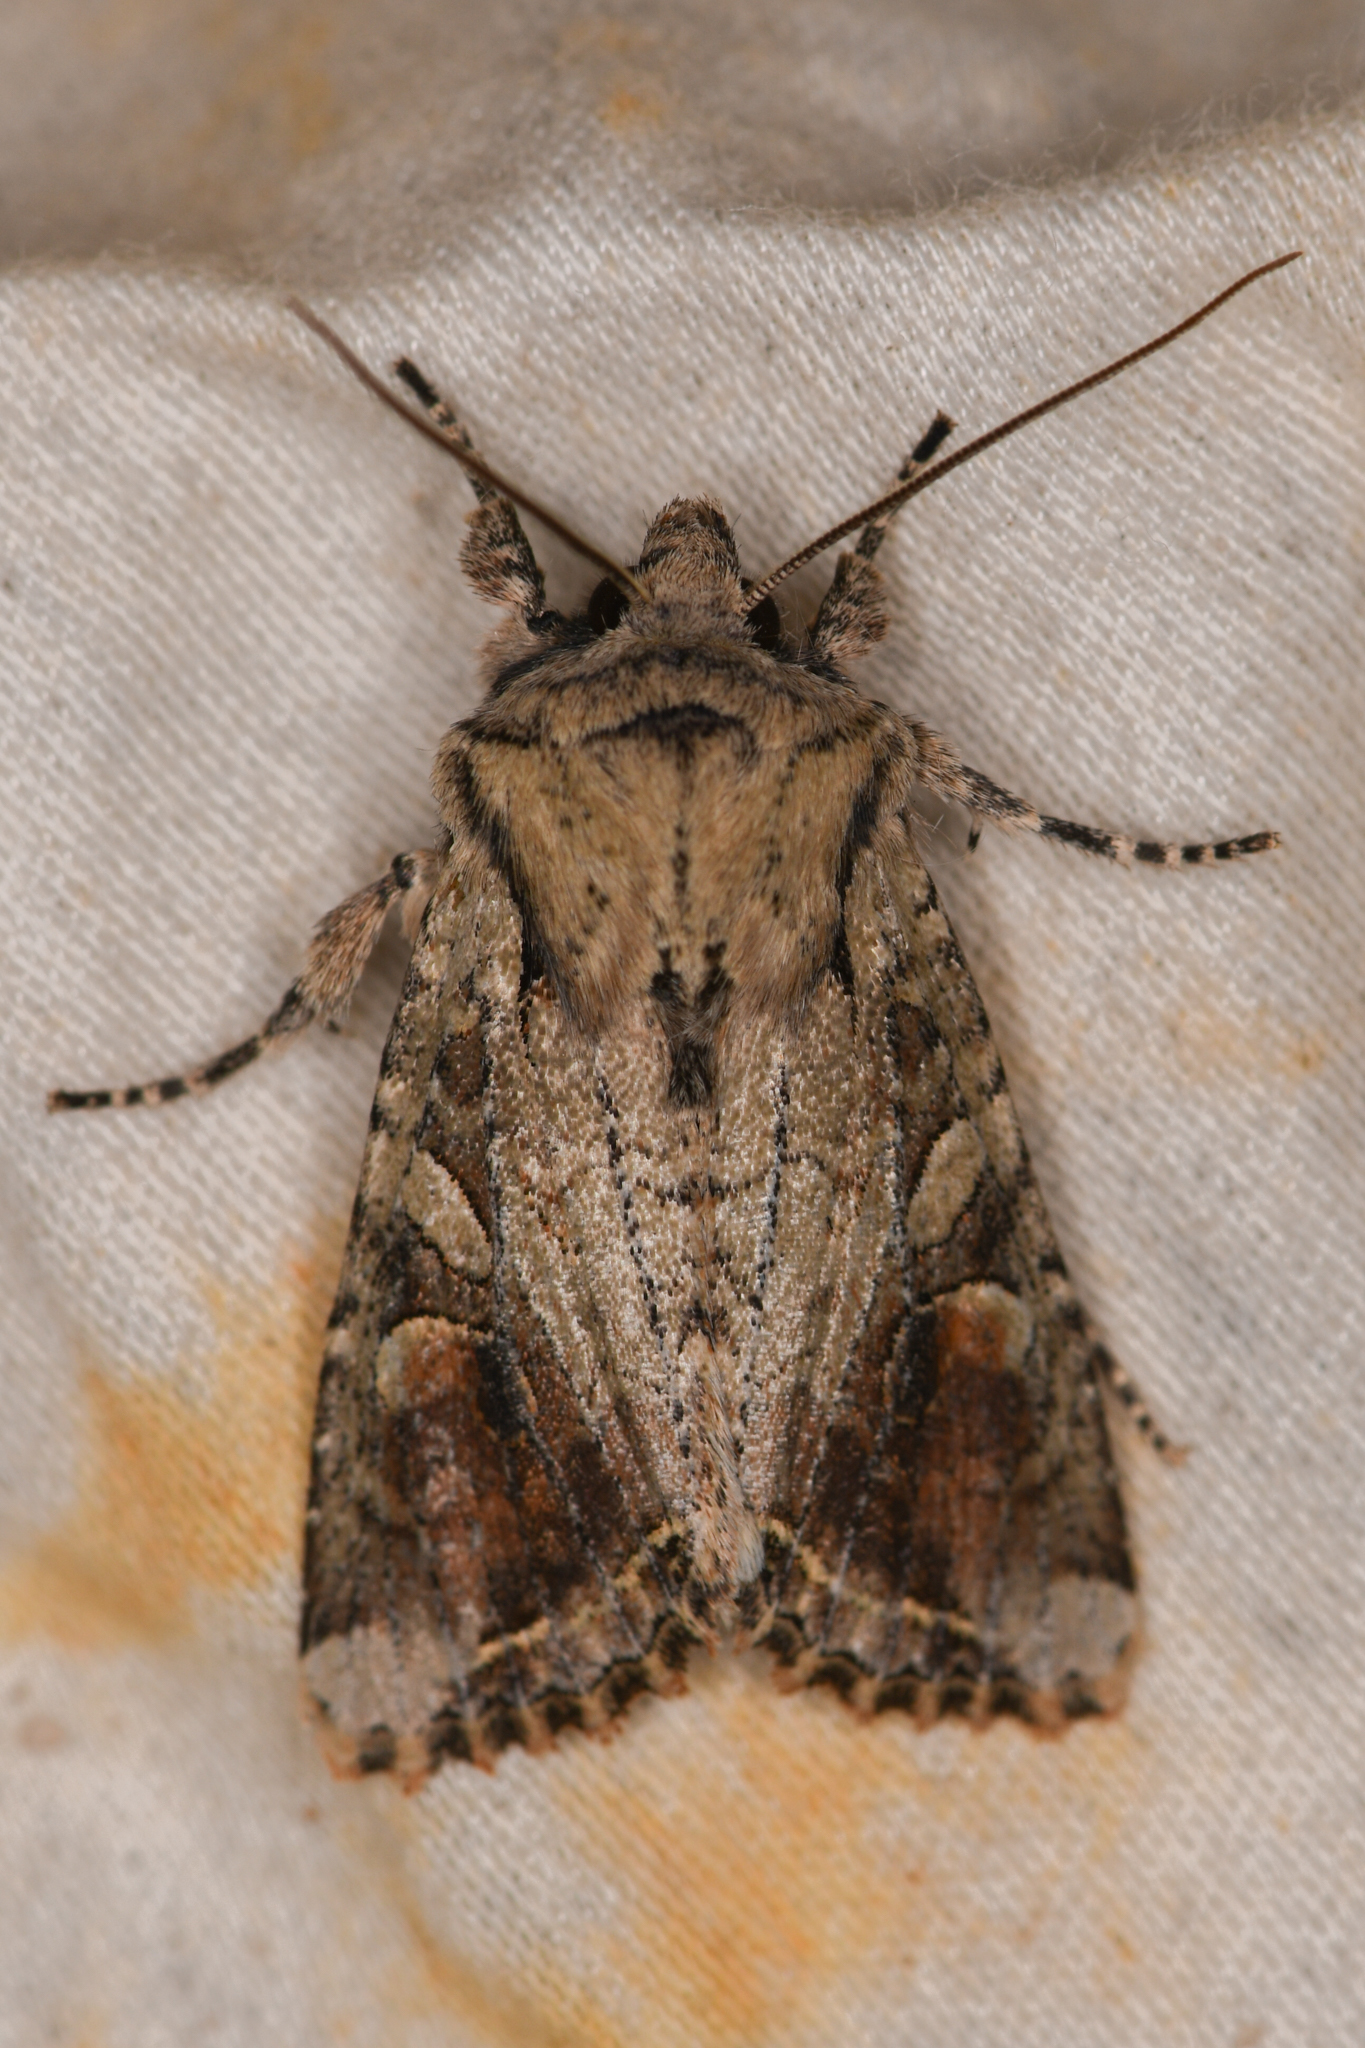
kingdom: Animalia
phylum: Arthropoda
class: Insecta
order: Lepidoptera
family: Noctuidae
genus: Egira
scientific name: Egira rubrica
